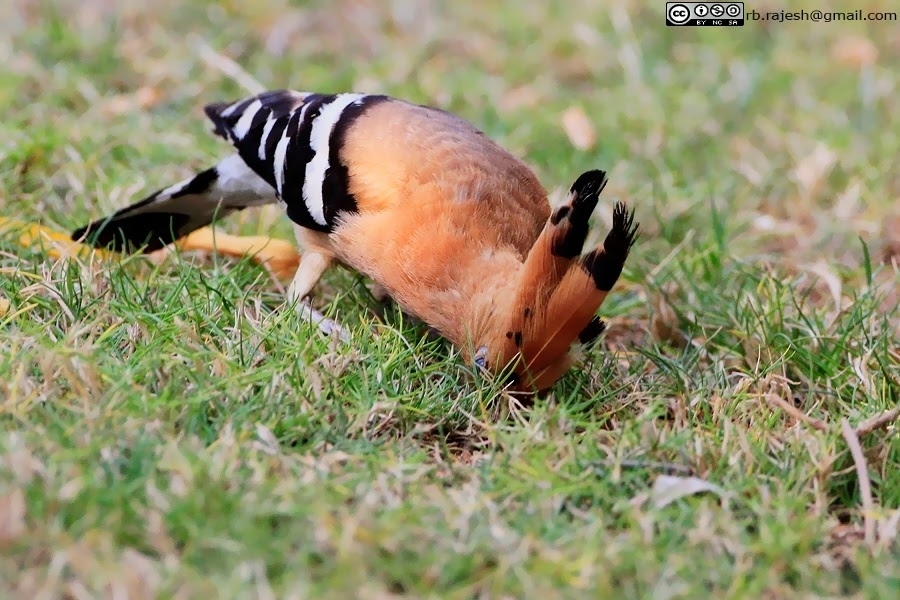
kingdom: Animalia
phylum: Chordata
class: Aves
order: Bucerotiformes
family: Upupidae
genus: Upupa
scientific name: Upupa epops
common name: Eurasian hoopoe
